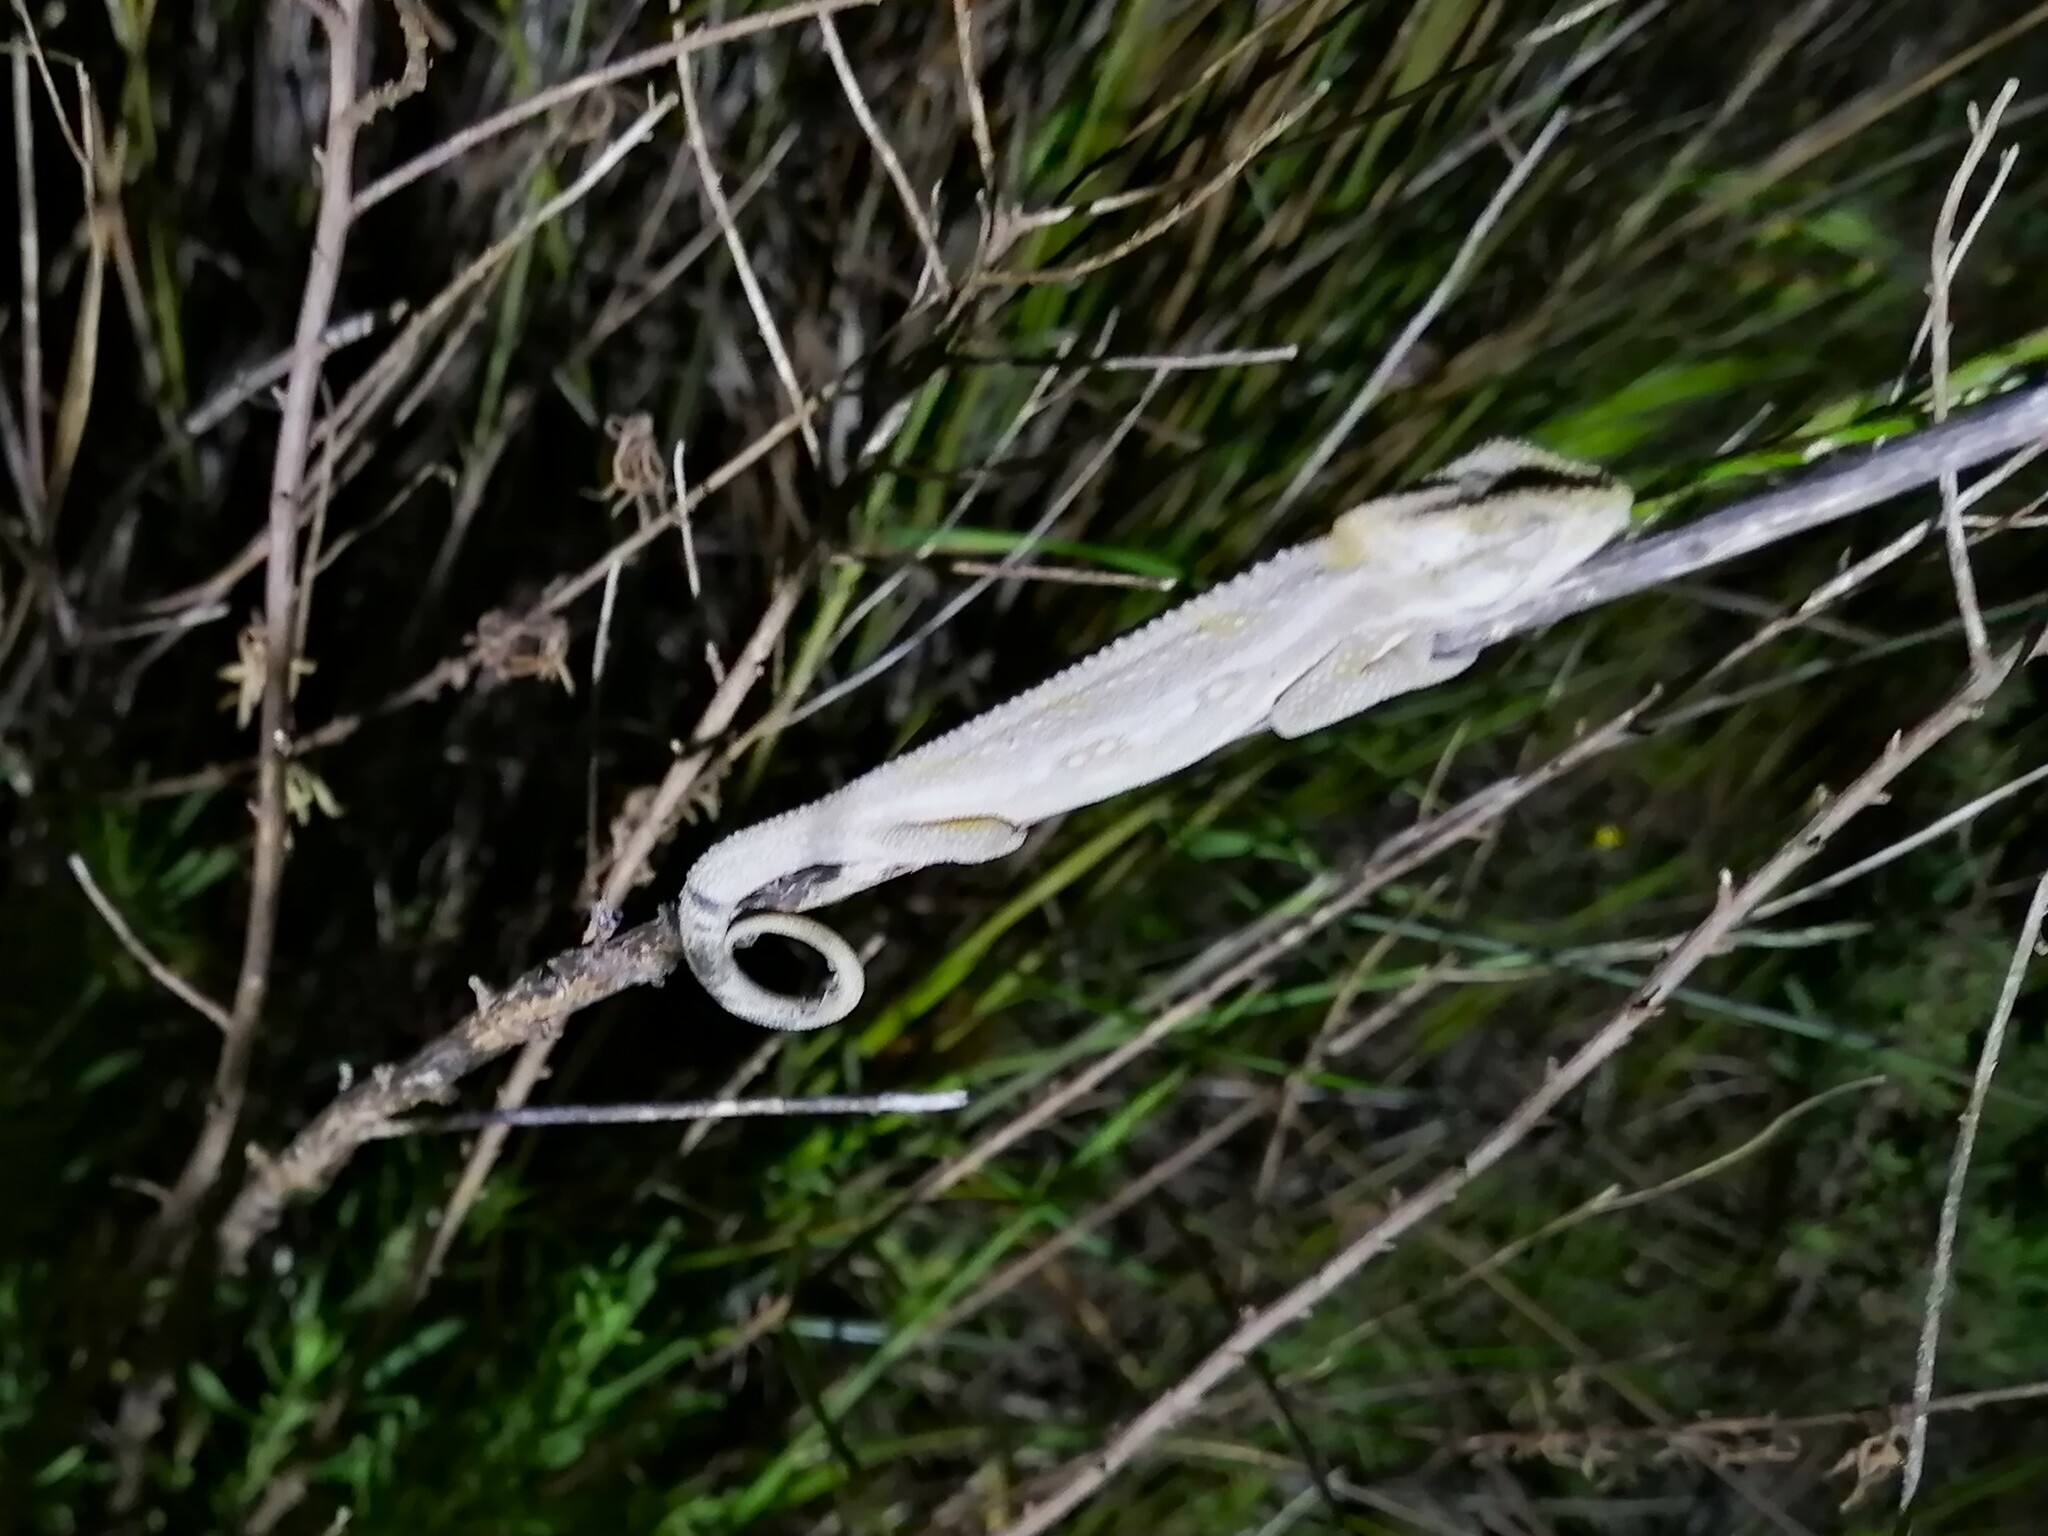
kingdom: Animalia
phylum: Chordata
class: Squamata
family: Chamaeleonidae
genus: Bradypodion
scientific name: Bradypodion pumilum
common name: Cape dwarf chameleon
